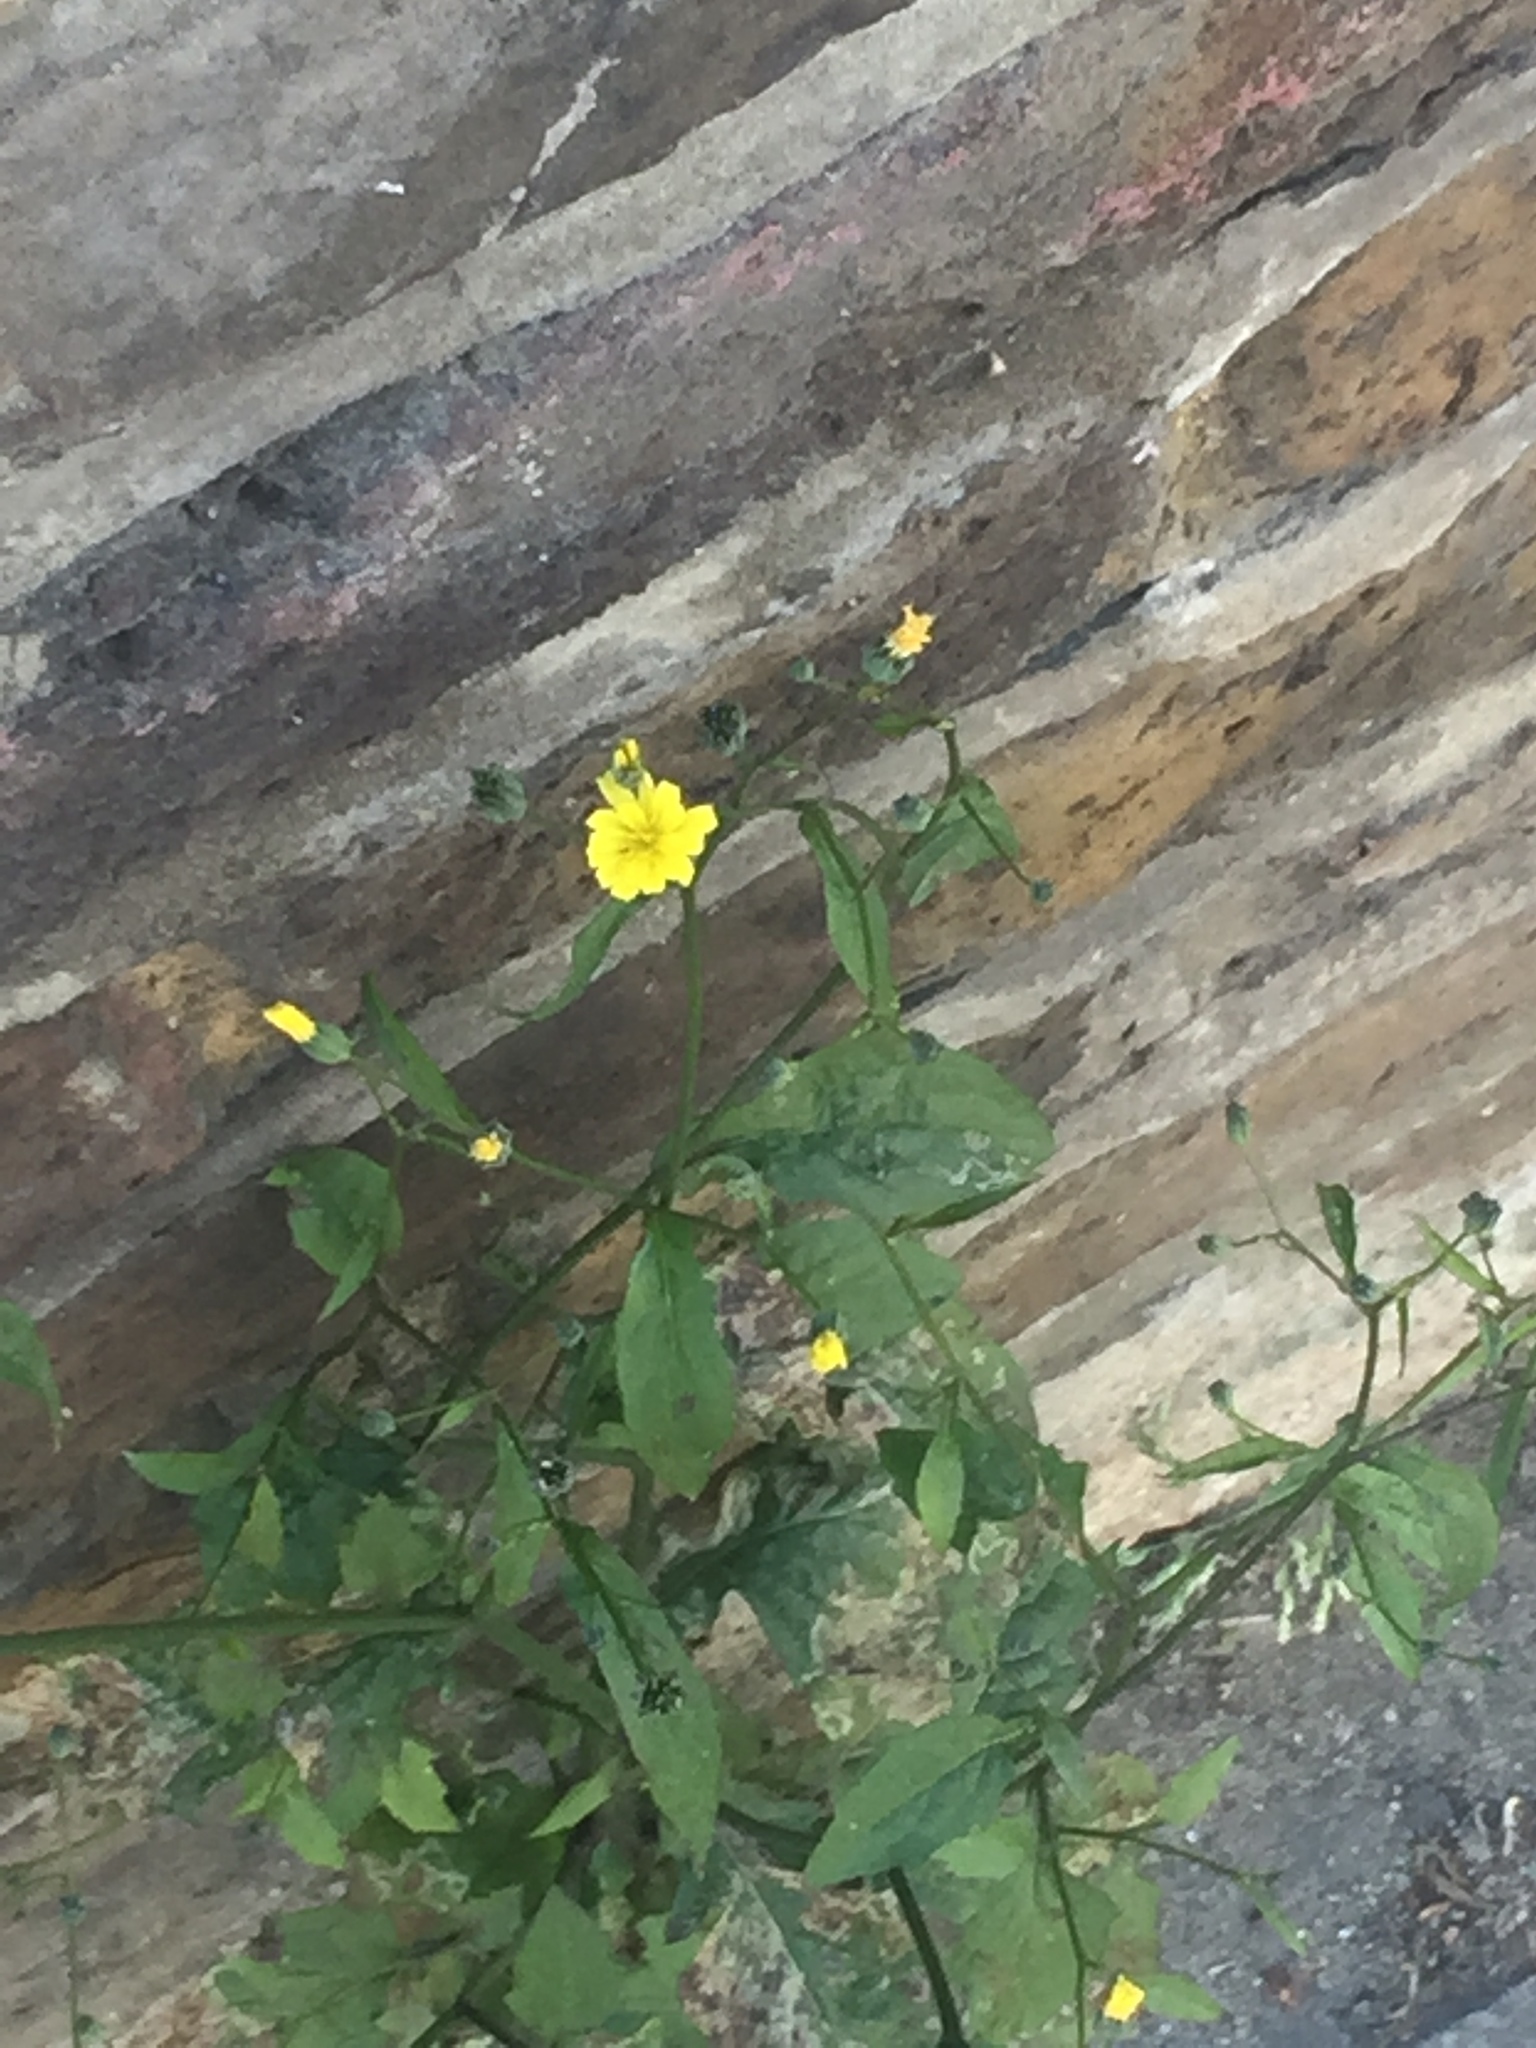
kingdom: Plantae
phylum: Tracheophyta
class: Magnoliopsida
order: Asterales
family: Asteraceae
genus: Lapsana
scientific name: Lapsana communis
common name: Nipplewort
